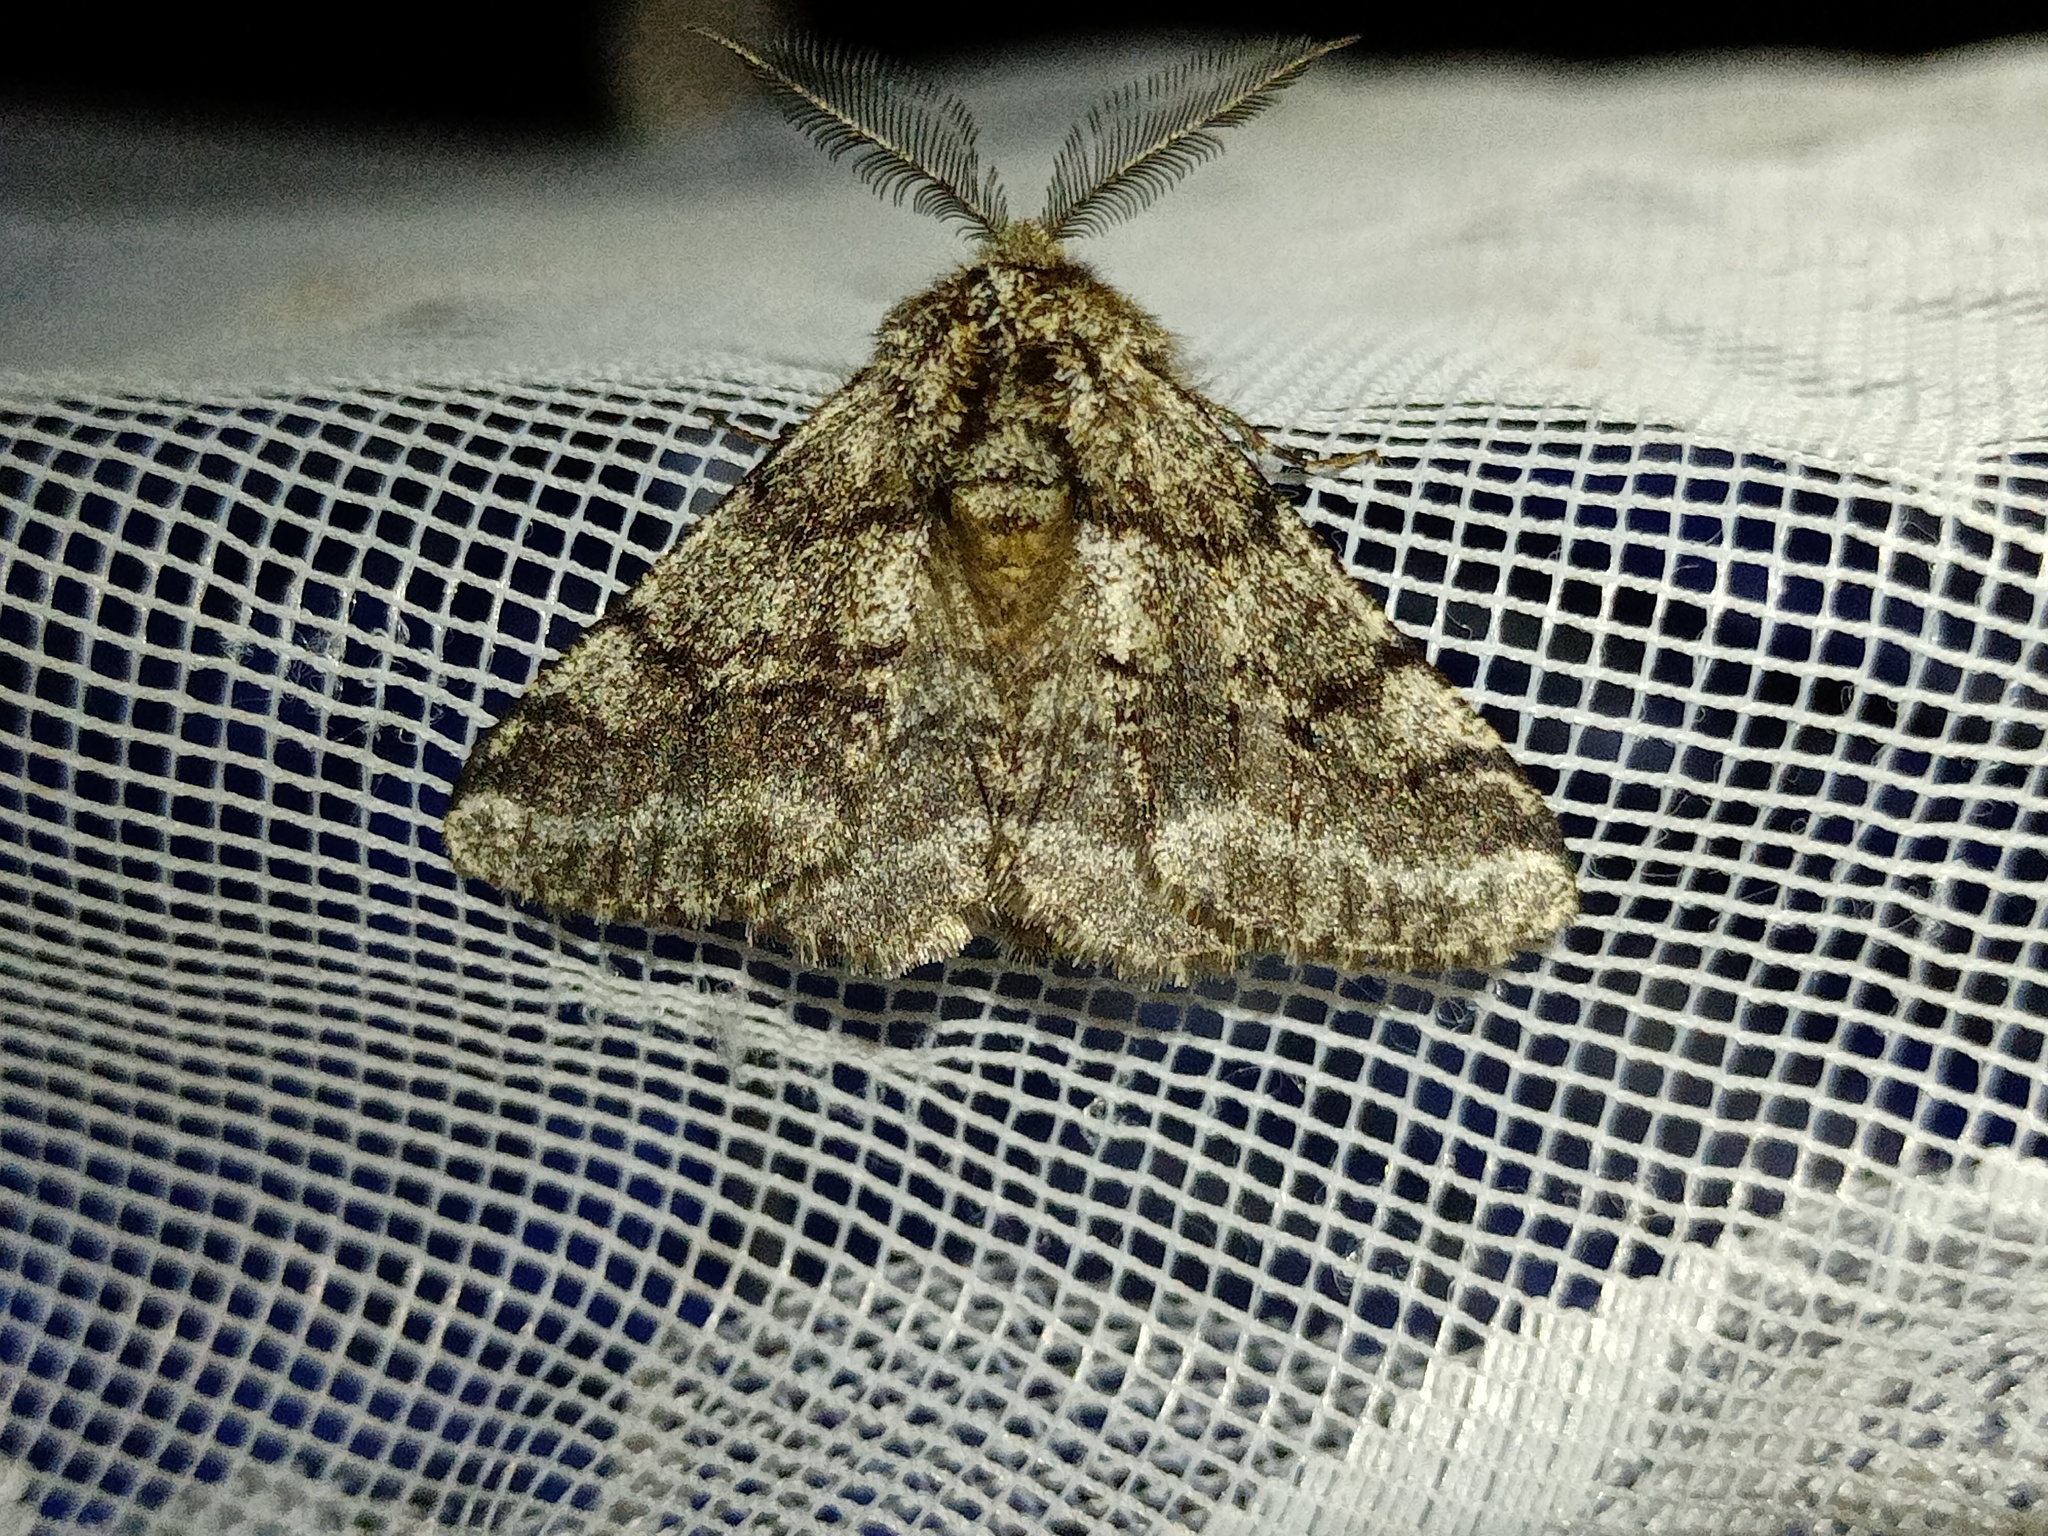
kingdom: Animalia
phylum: Arthropoda
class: Insecta
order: Lepidoptera
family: Geometridae
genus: Lycia
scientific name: Lycia hirtaria
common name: Brindled beauty
